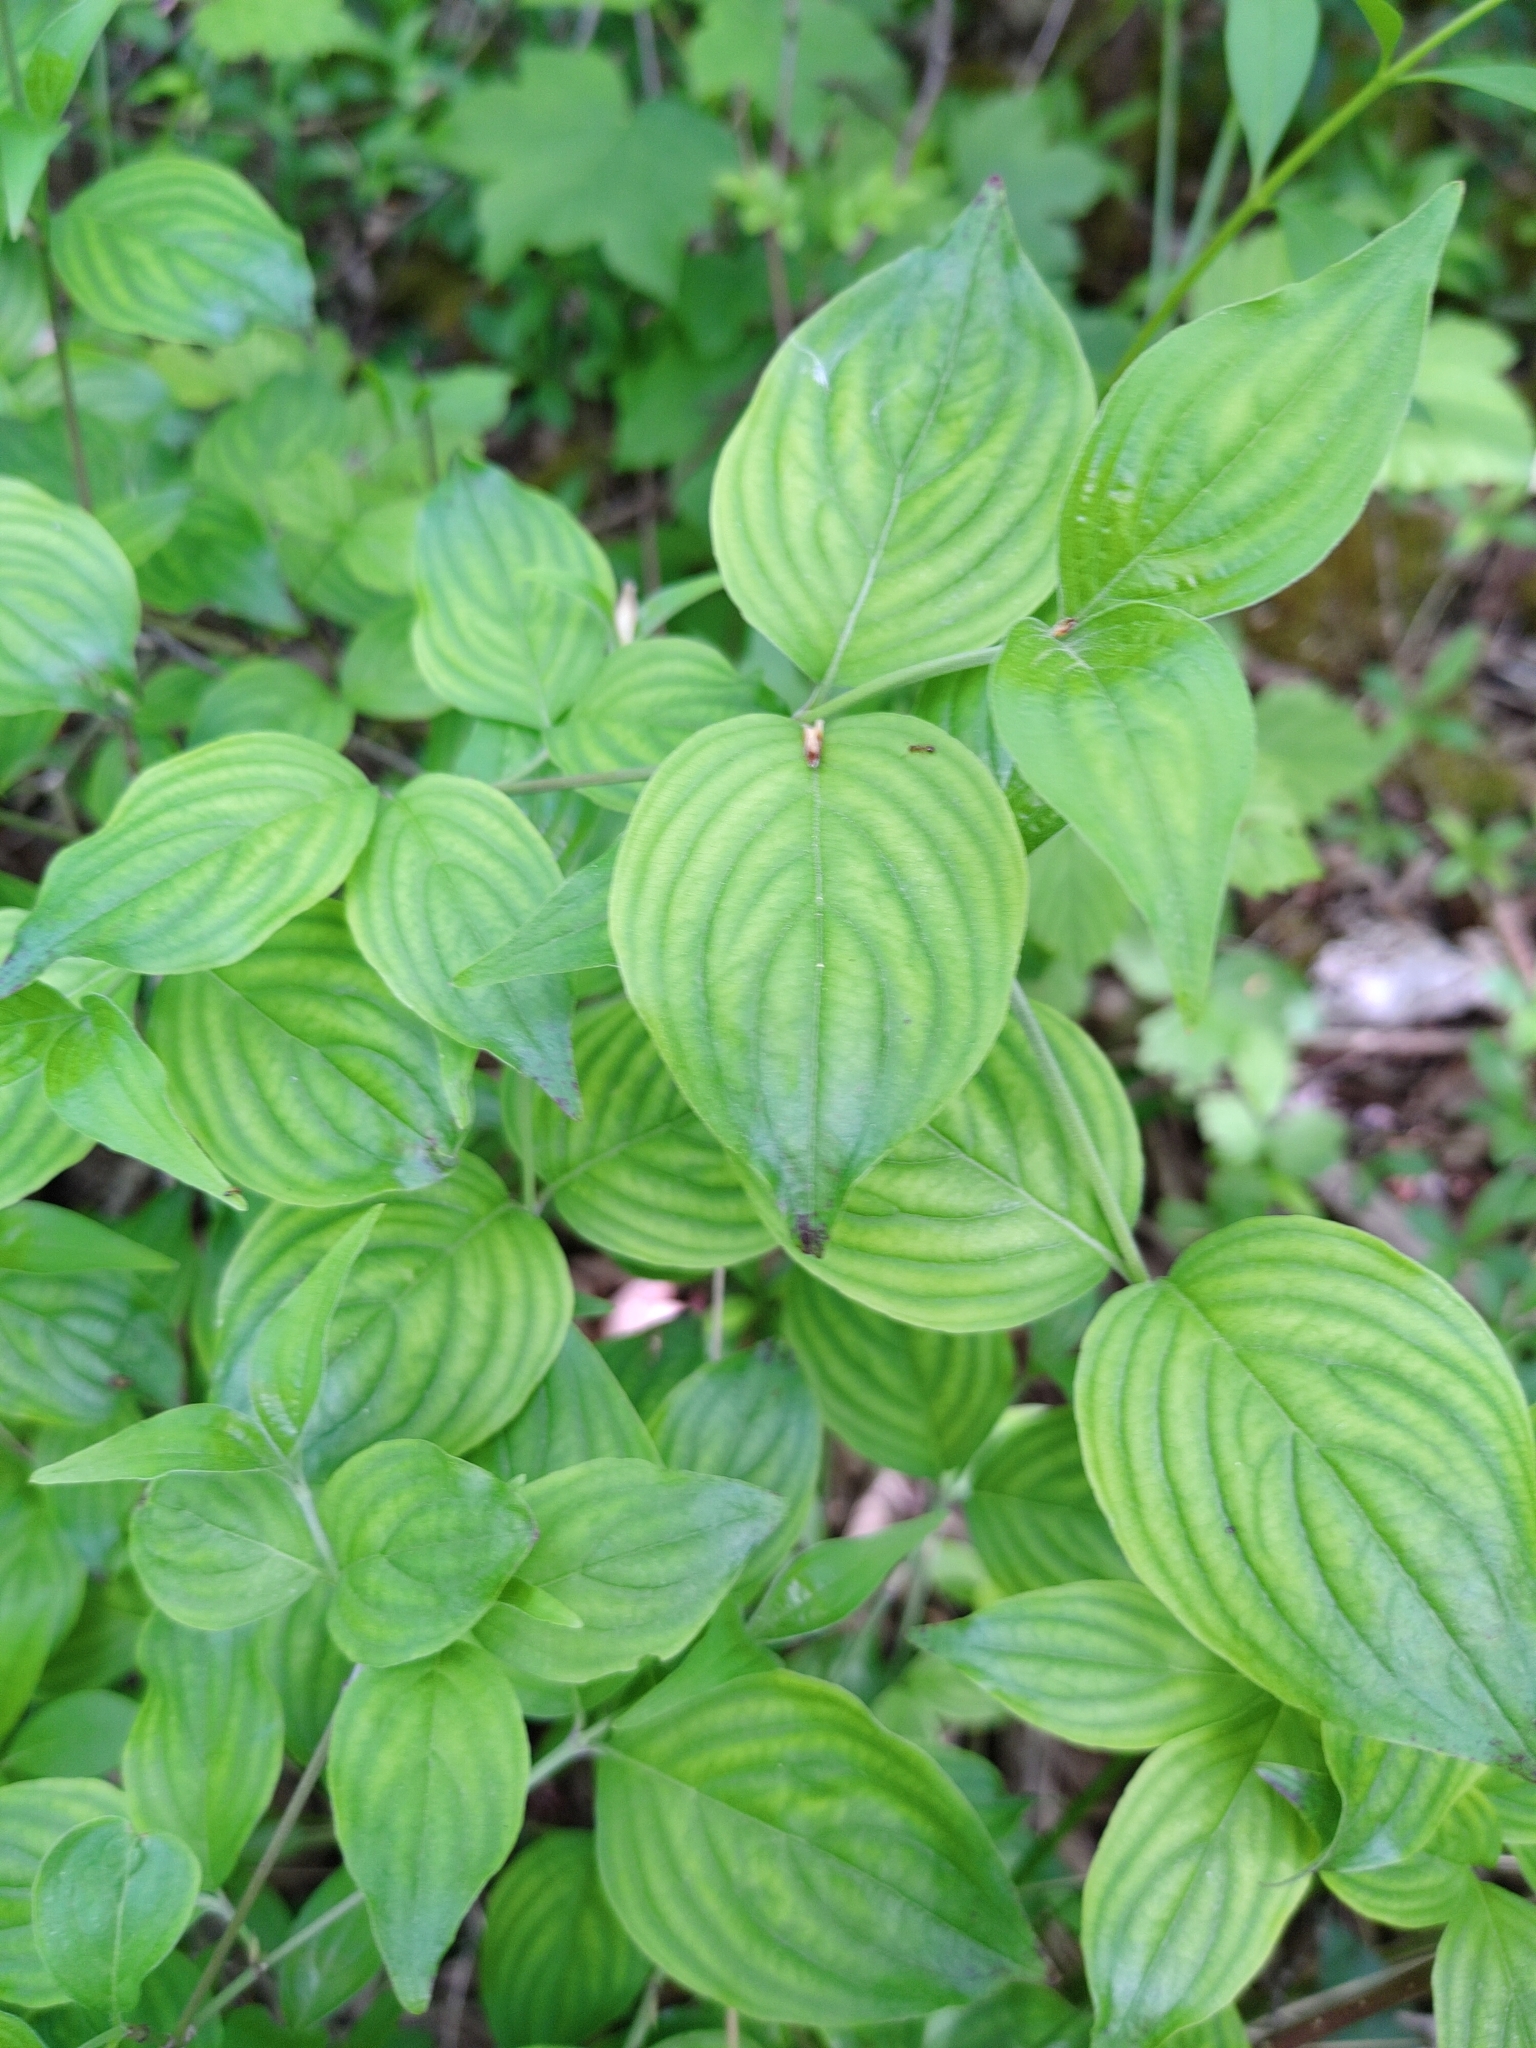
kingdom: Plantae
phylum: Tracheophyta
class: Magnoliopsida
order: Cornales
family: Cornaceae
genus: Cornus
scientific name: Cornus mas
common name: Cornelian-cherry
